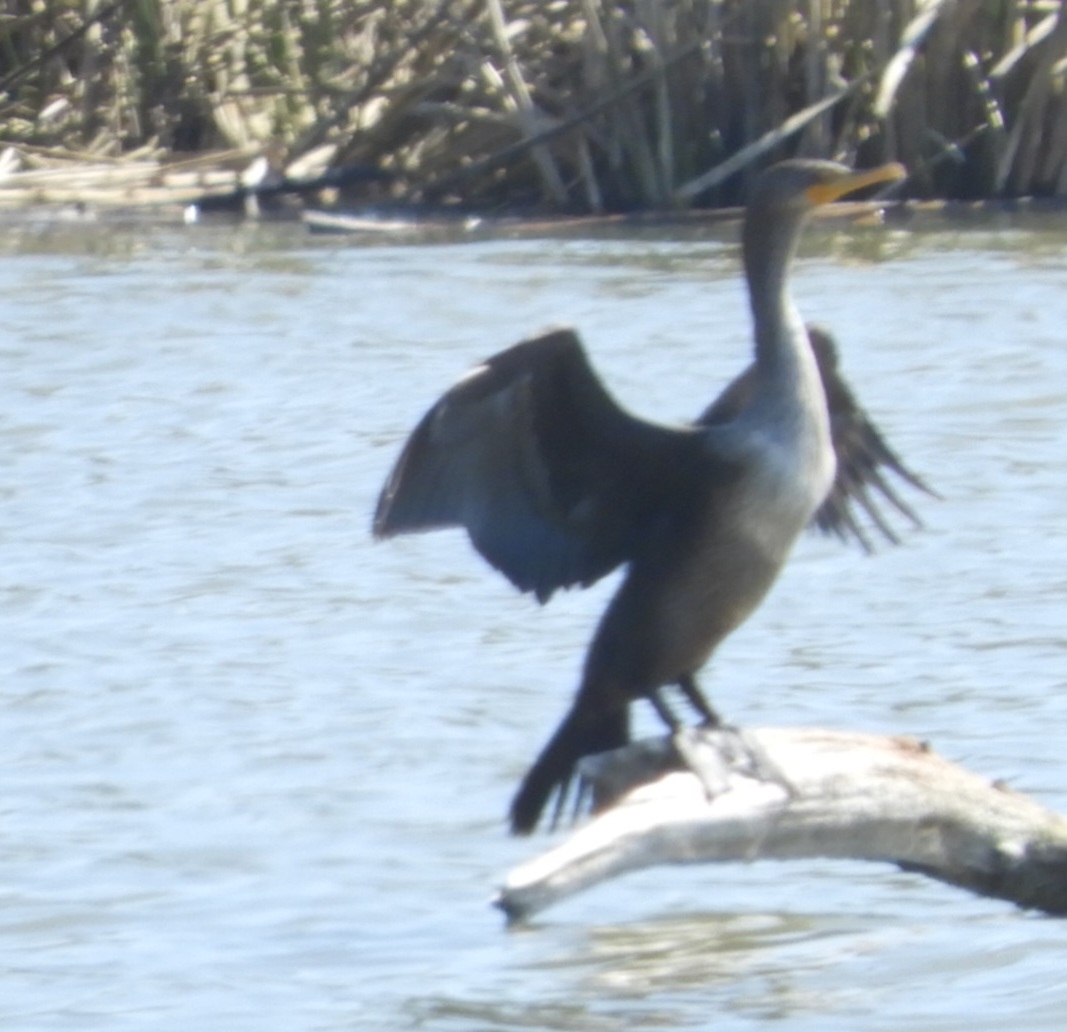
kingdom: Animalia
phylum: Chordata
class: Aves
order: Suliformes
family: Phalacrocoracidae
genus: Phalacrocorax
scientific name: Phalacrocorax auritus
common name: Double-crested cormorant
